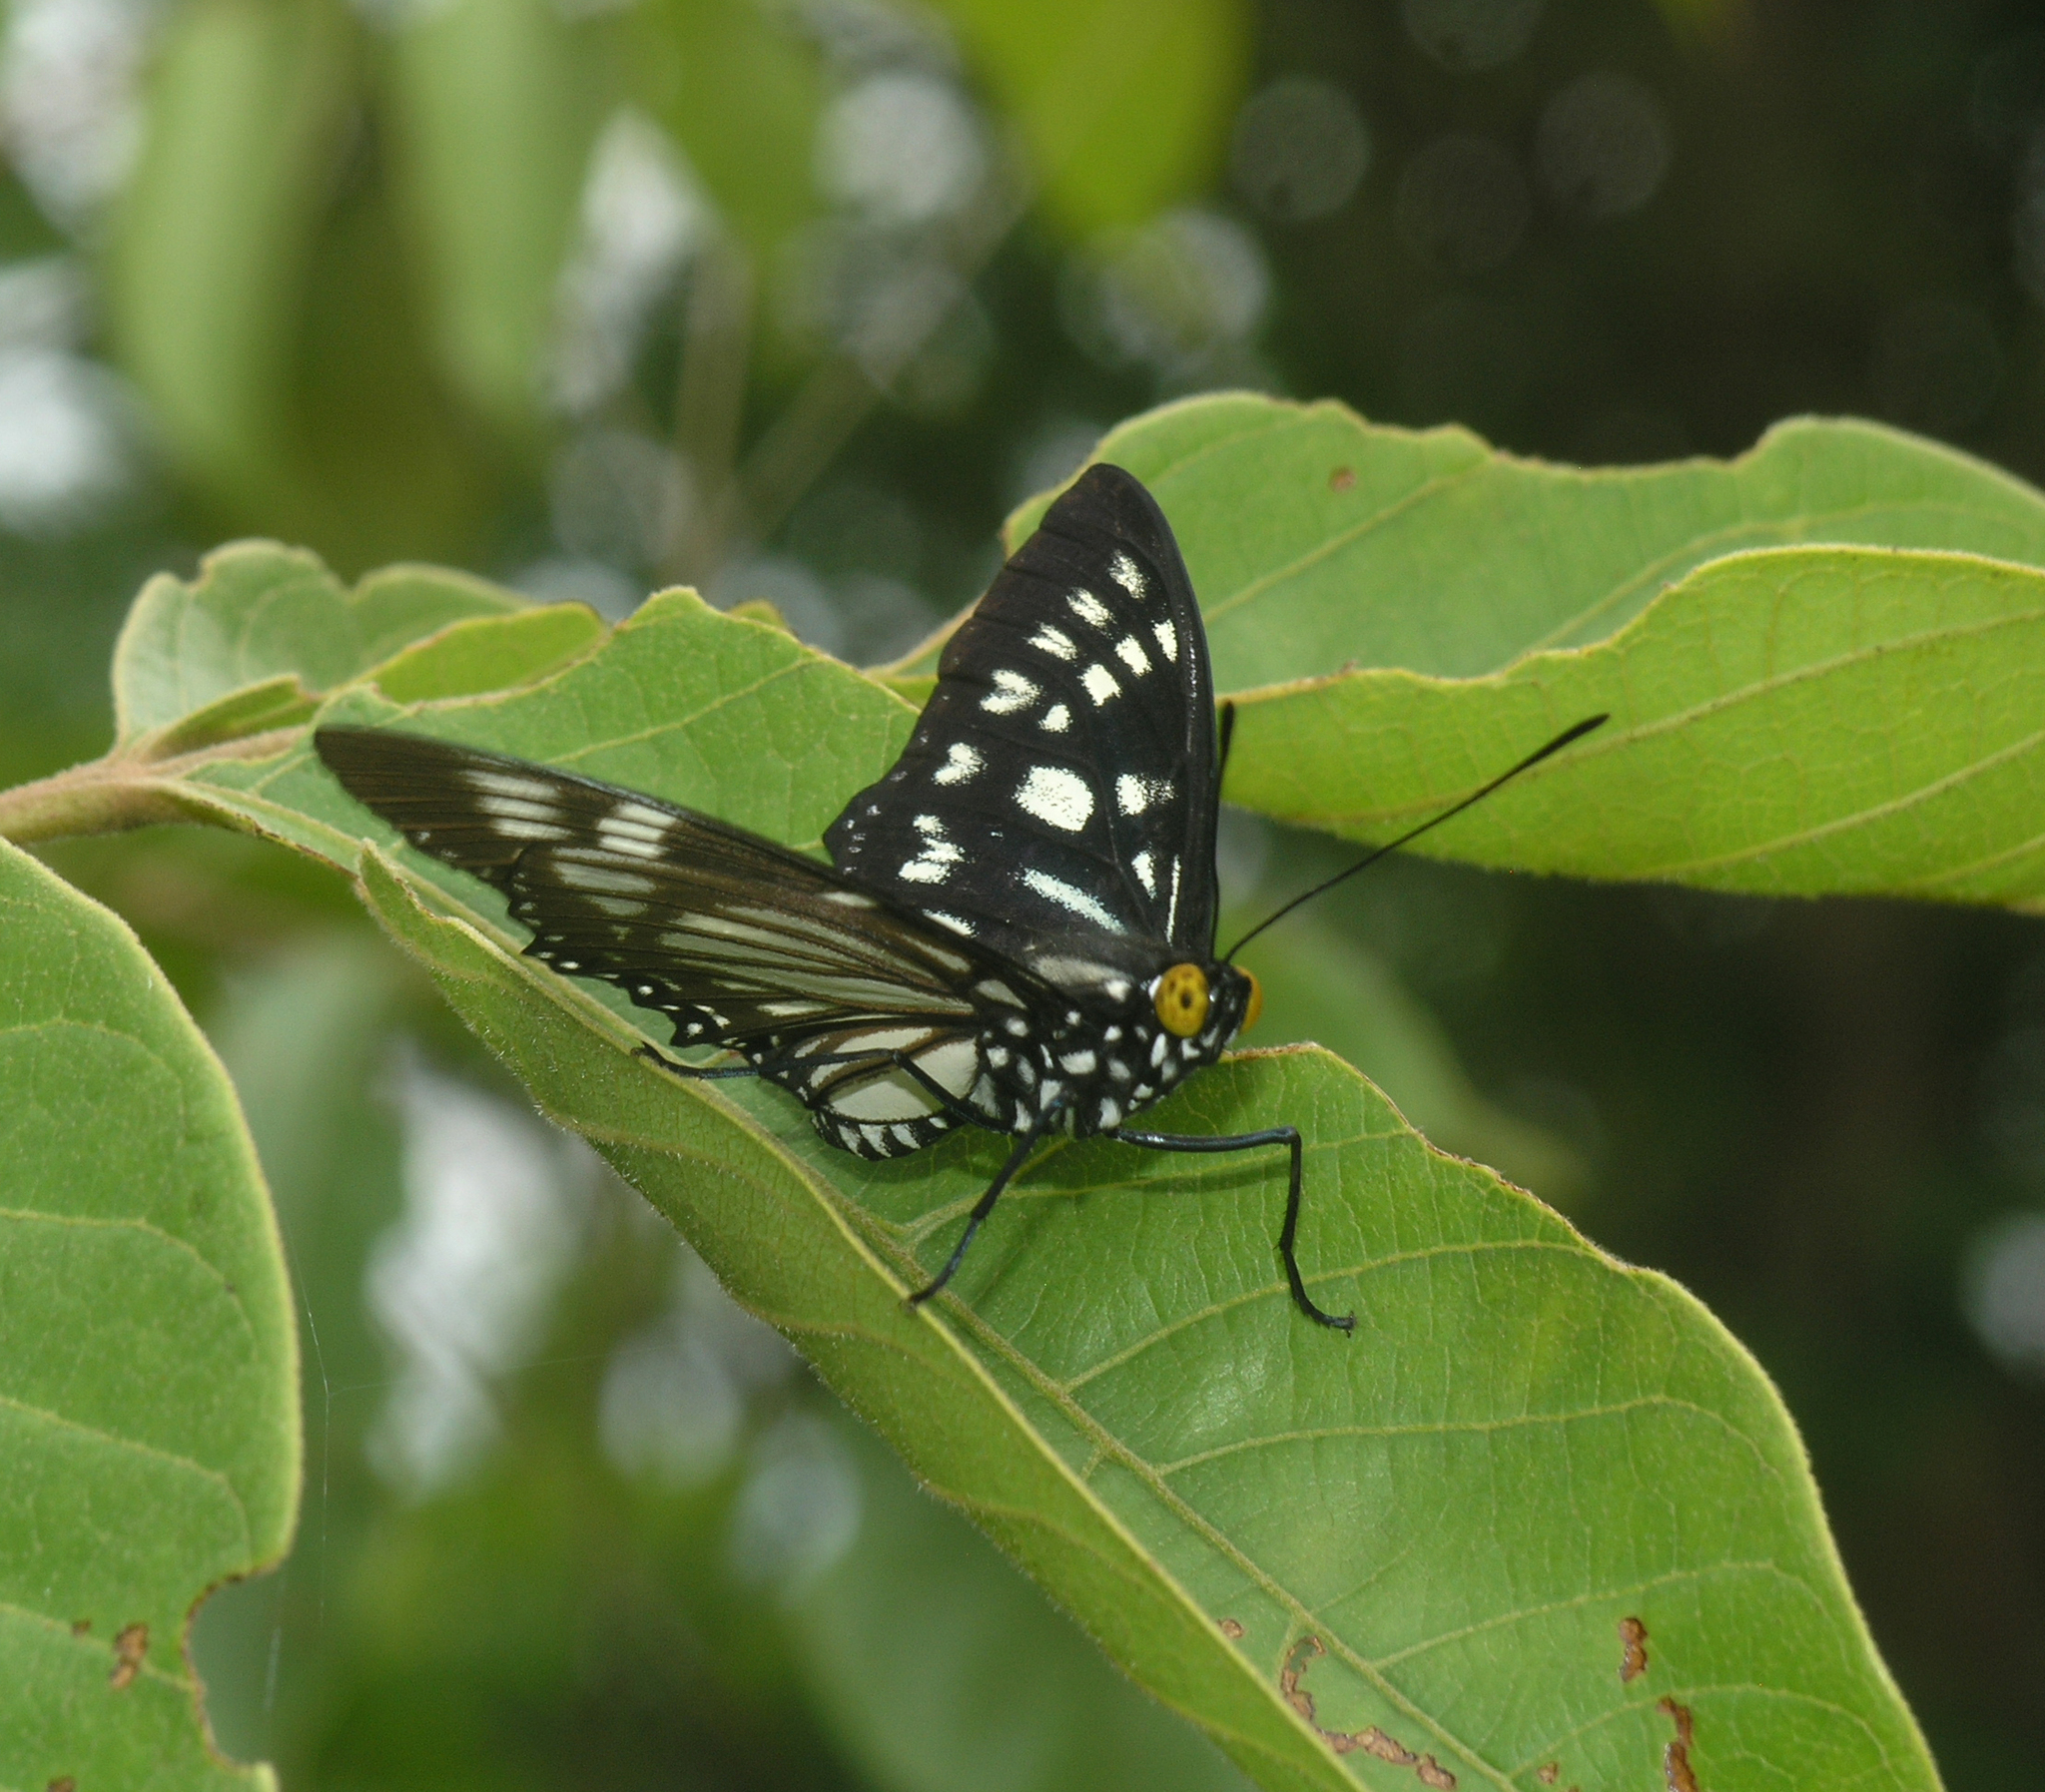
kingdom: Animalia
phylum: Arthropoda
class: Insecta
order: Lepidoptera
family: Nymphalidae
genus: Euripus
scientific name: Euripus nyctelius
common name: Courtesan
